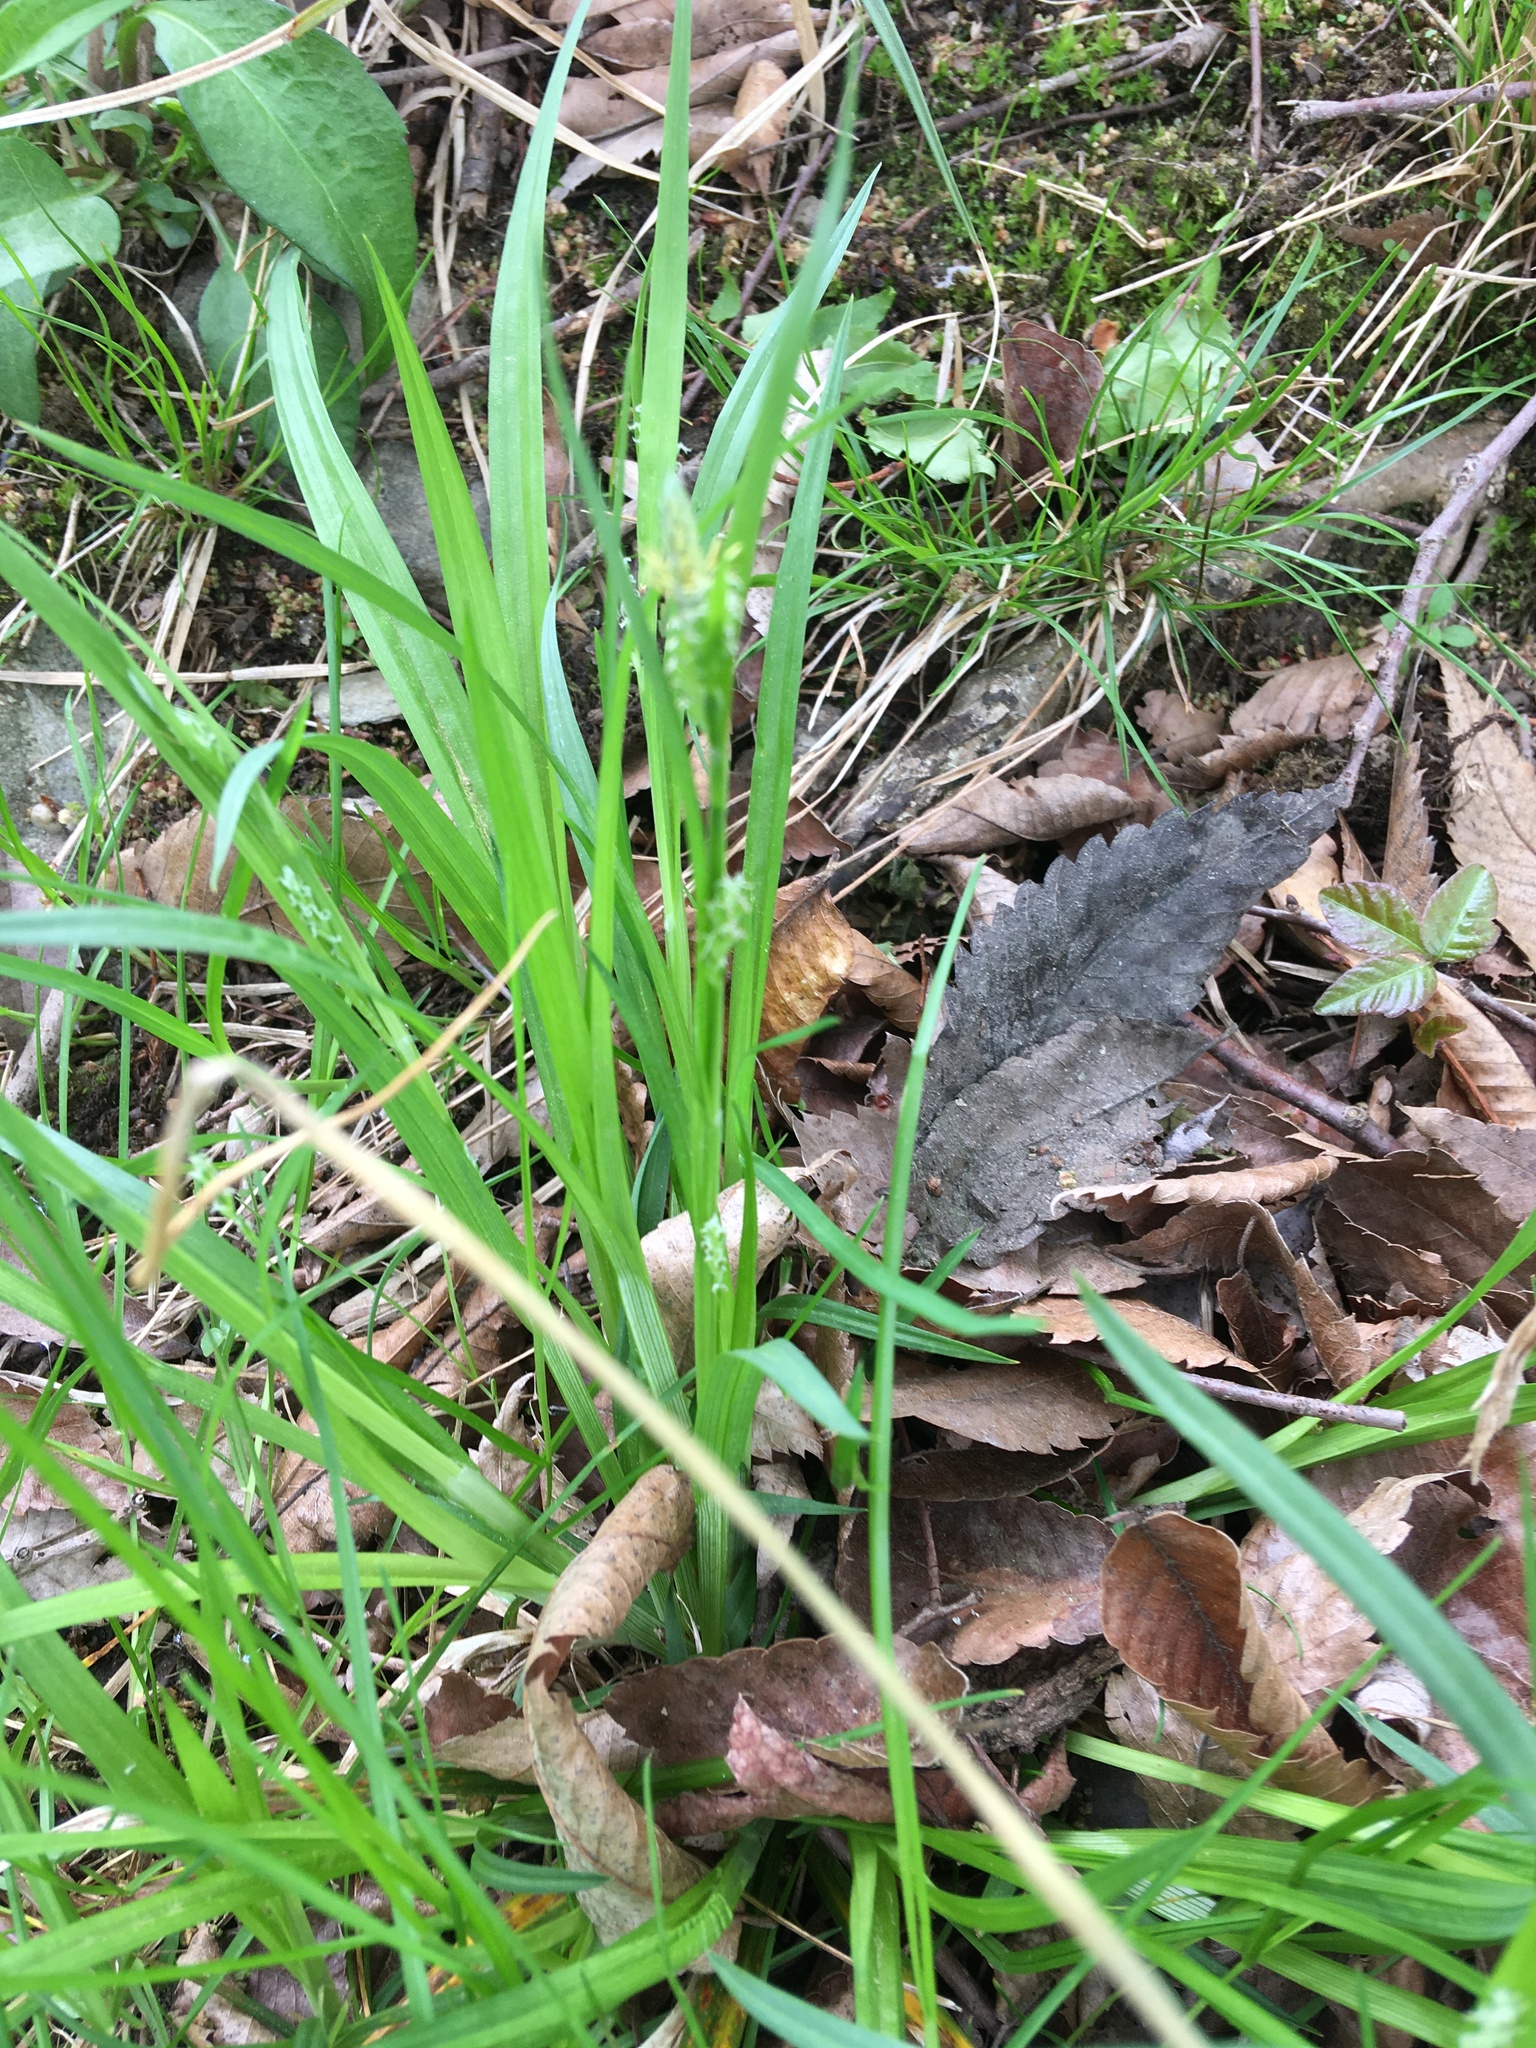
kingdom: Plantae
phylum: Tracheophyta
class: Liliopsida
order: Poales
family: Cyperaceae
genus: Carex
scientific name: Carex blanda
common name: Bland sedge
